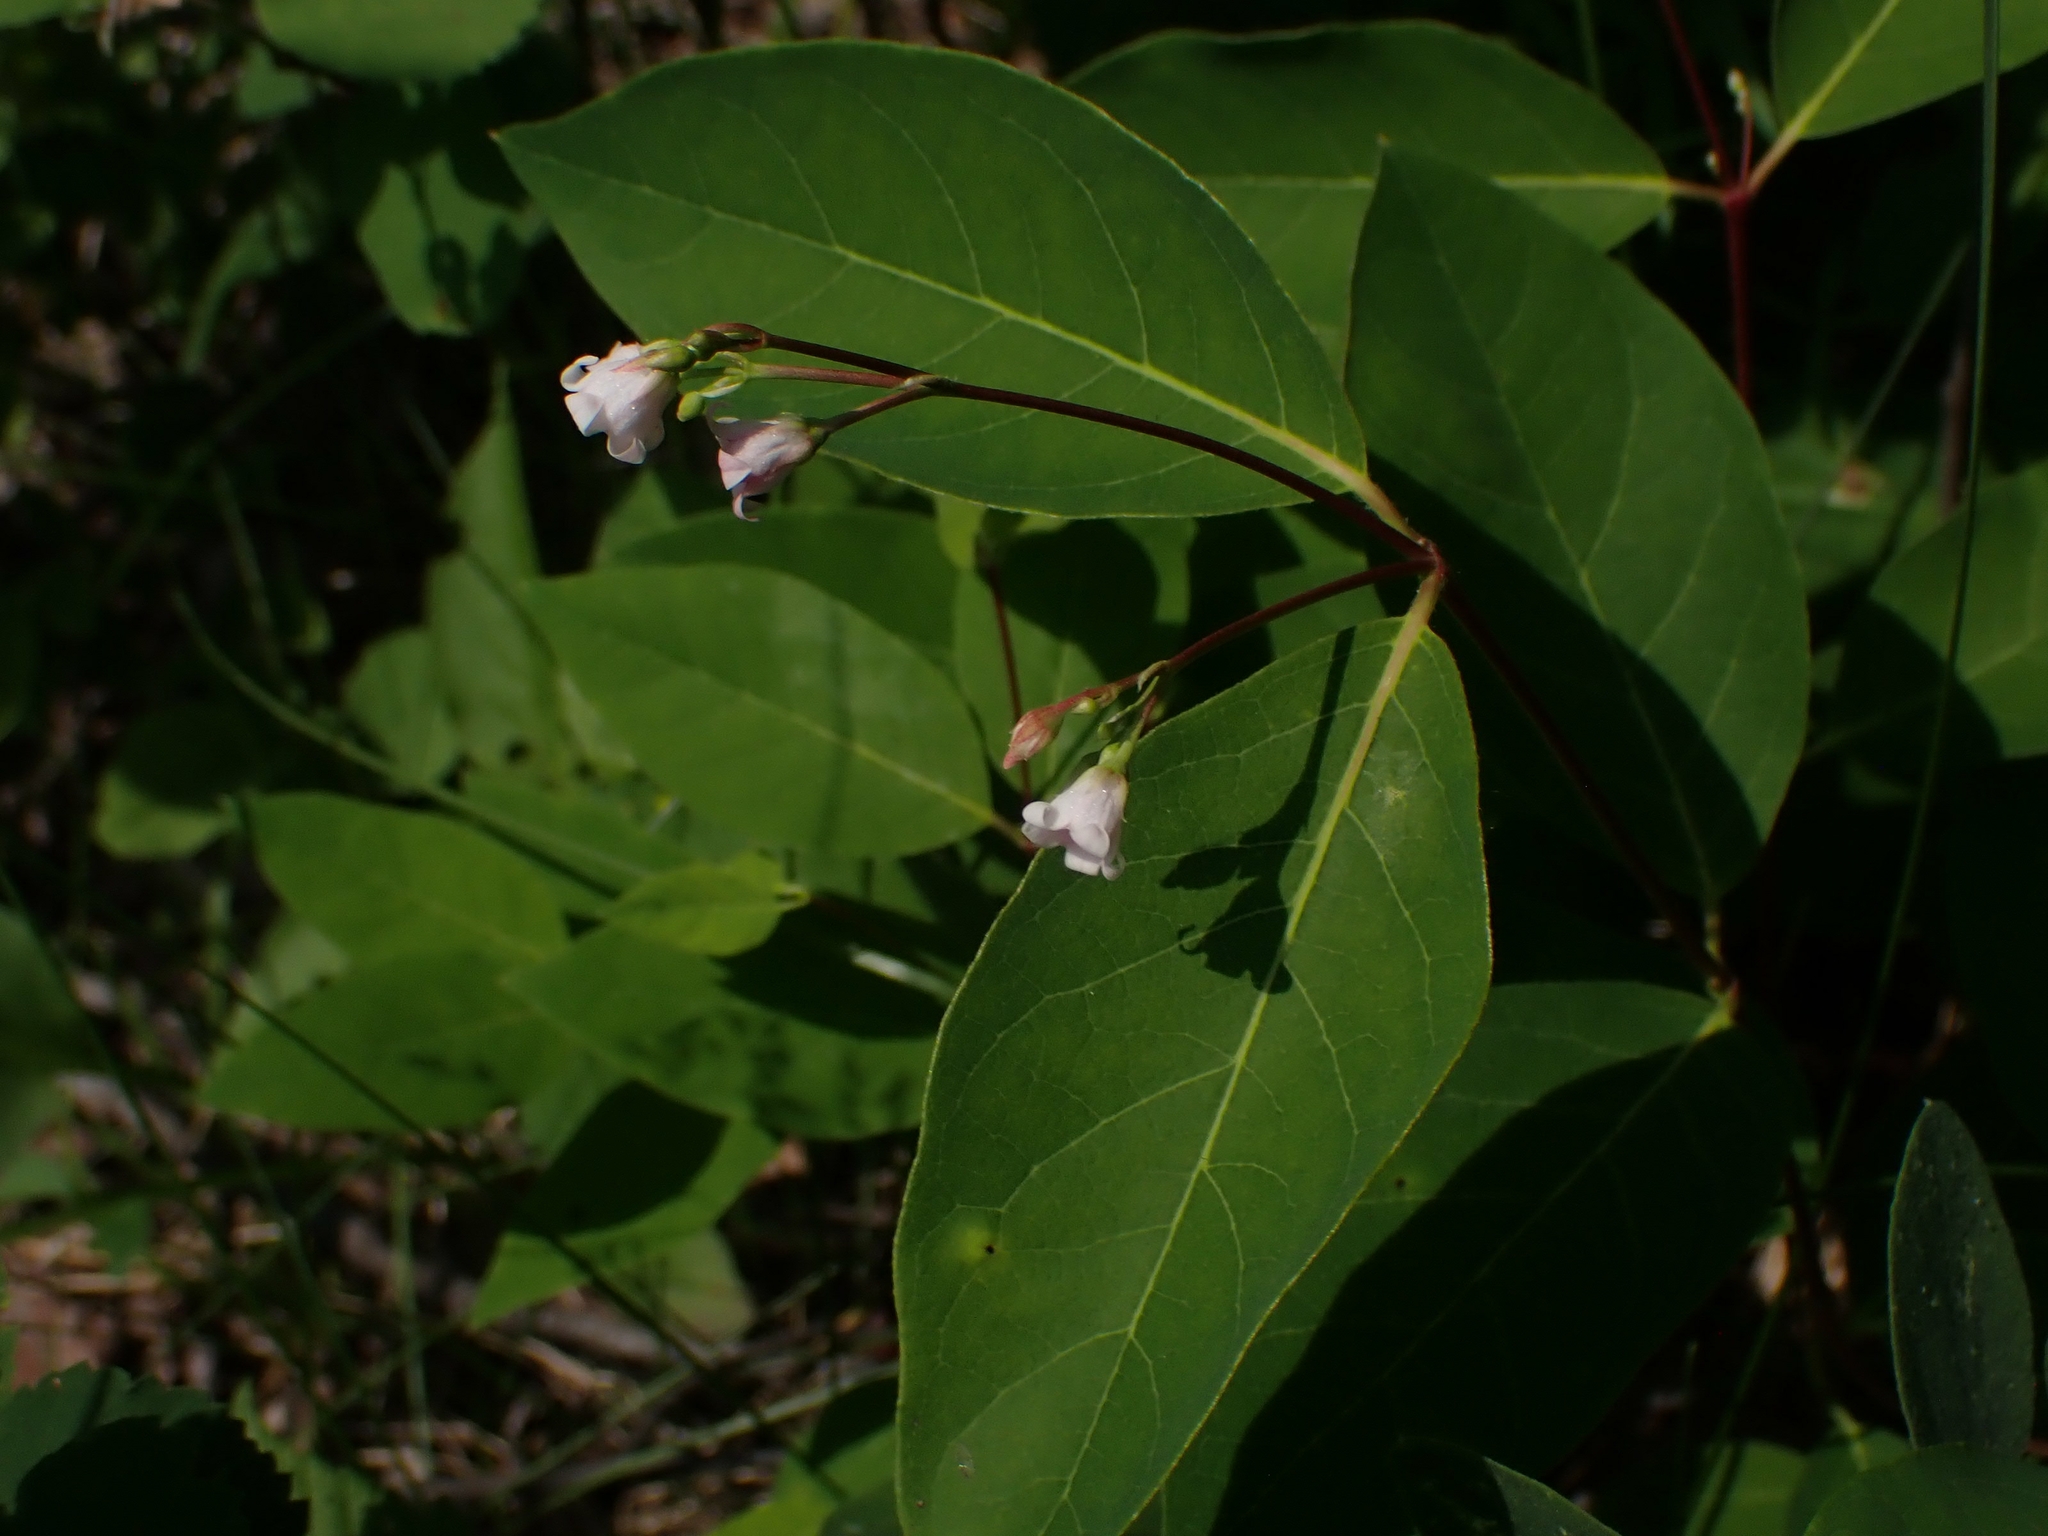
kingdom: Plantae
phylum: Tracheophyta
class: Magnoliopsida
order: Gentianales
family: Apocynaceae
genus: Apocynum
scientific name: Apocynum androsaemifolium
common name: Spreading dogbane
